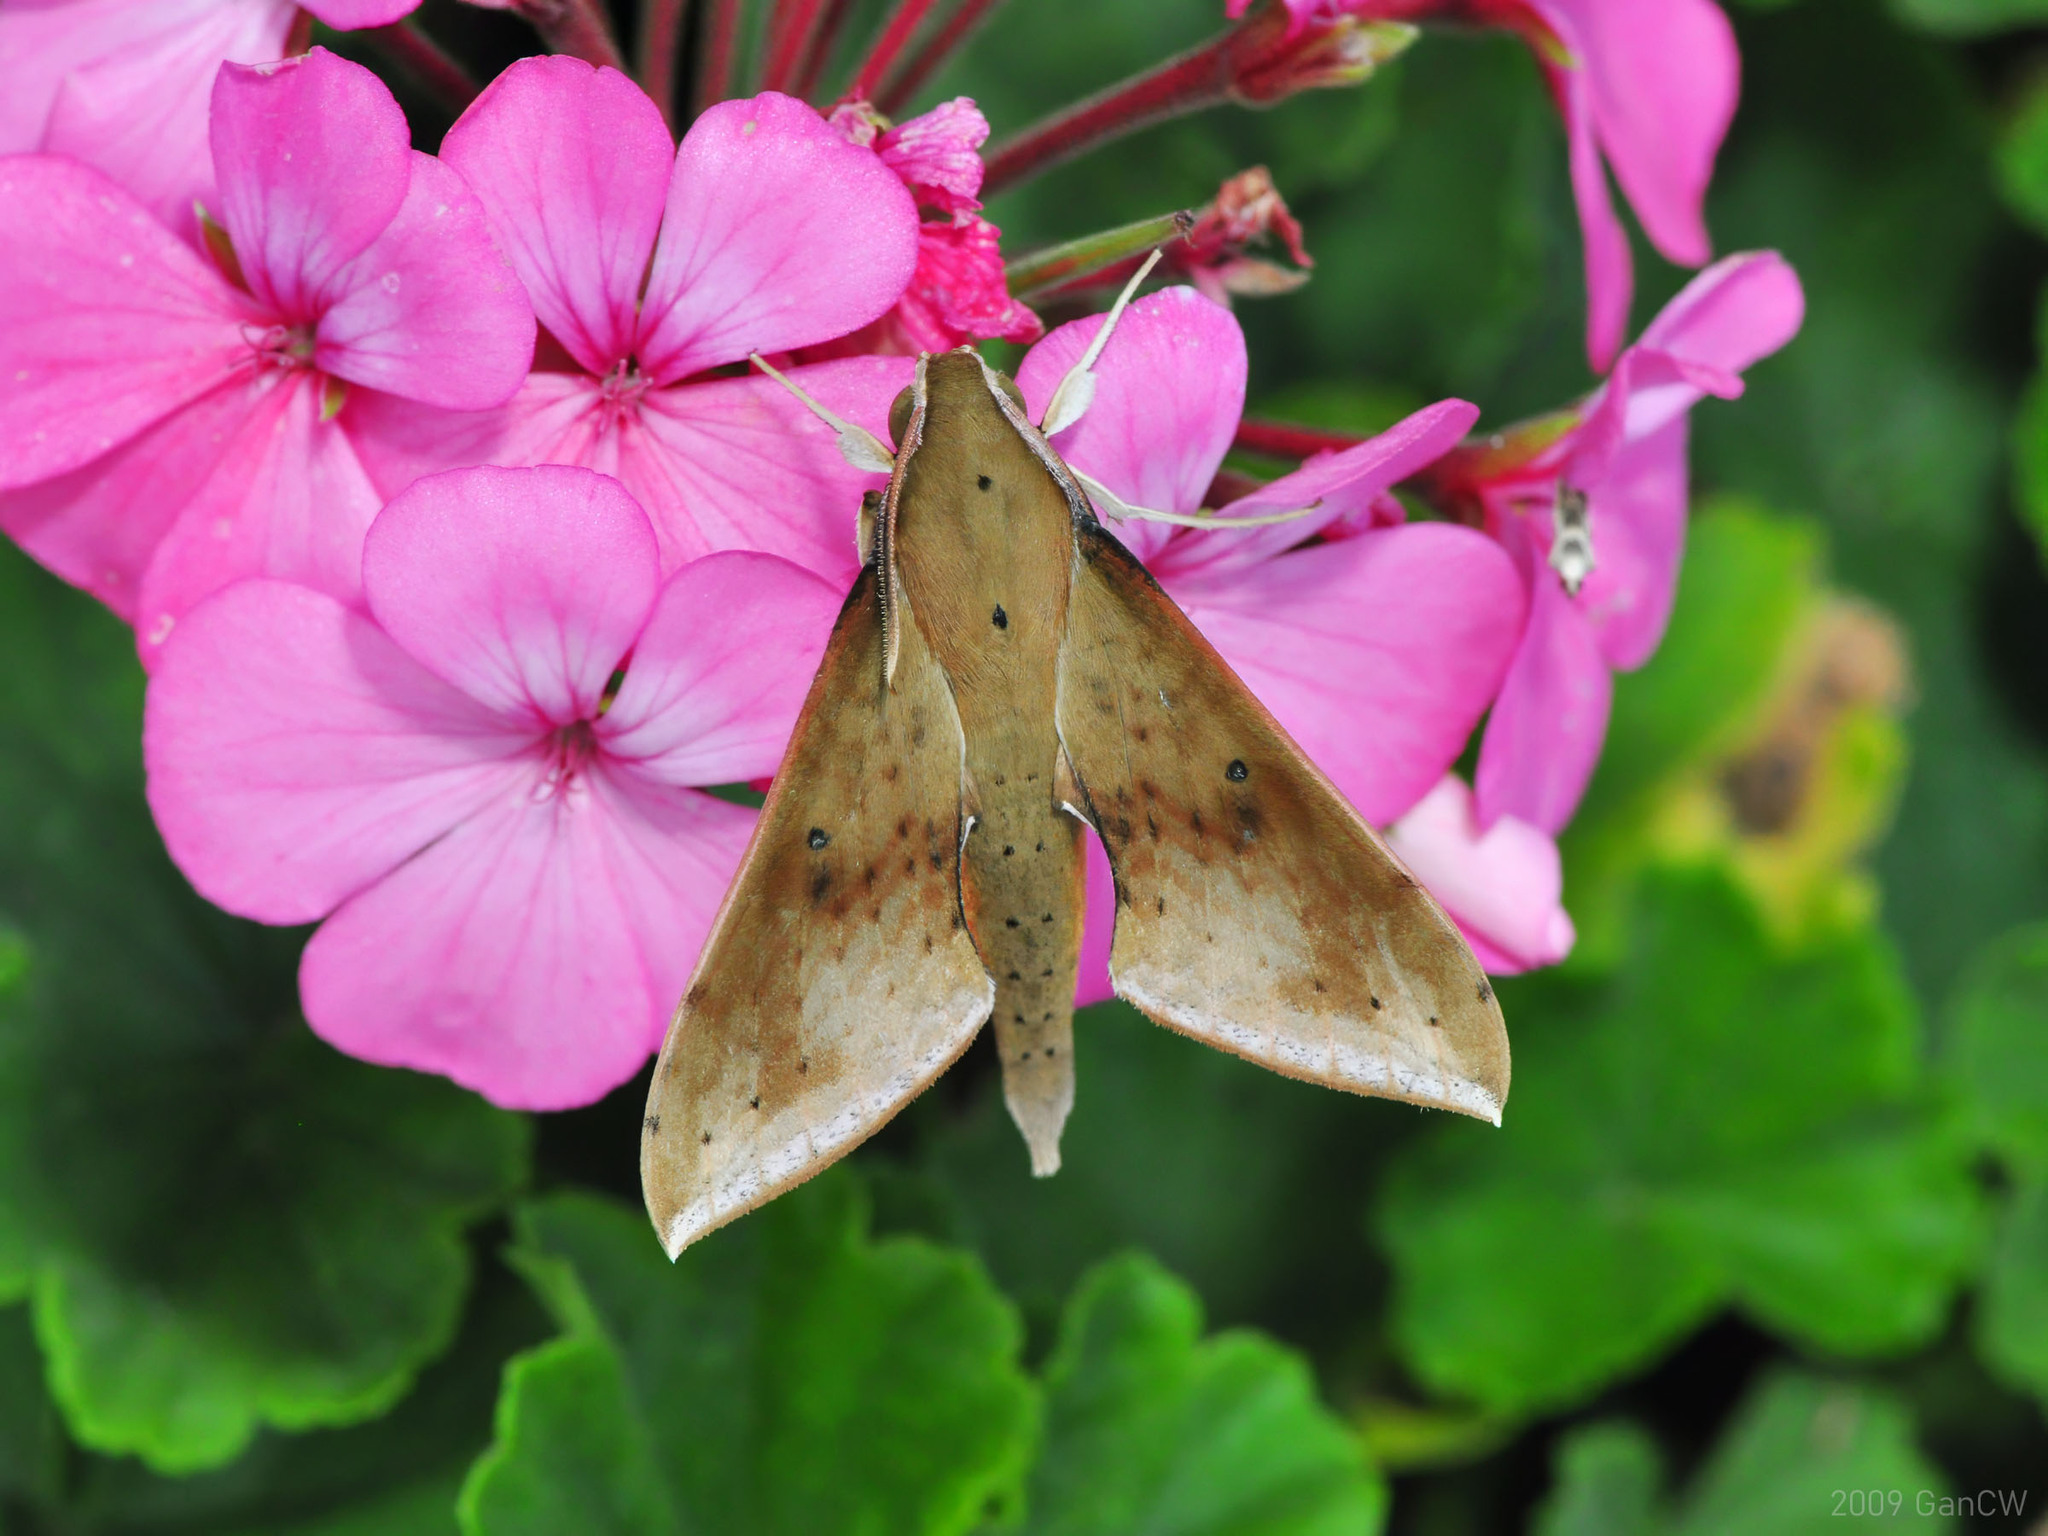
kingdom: Animalia
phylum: Arthropoda
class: Insecta
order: Lepidoptera
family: Sphingidae
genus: Rhagastis
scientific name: Rhagastis castor
